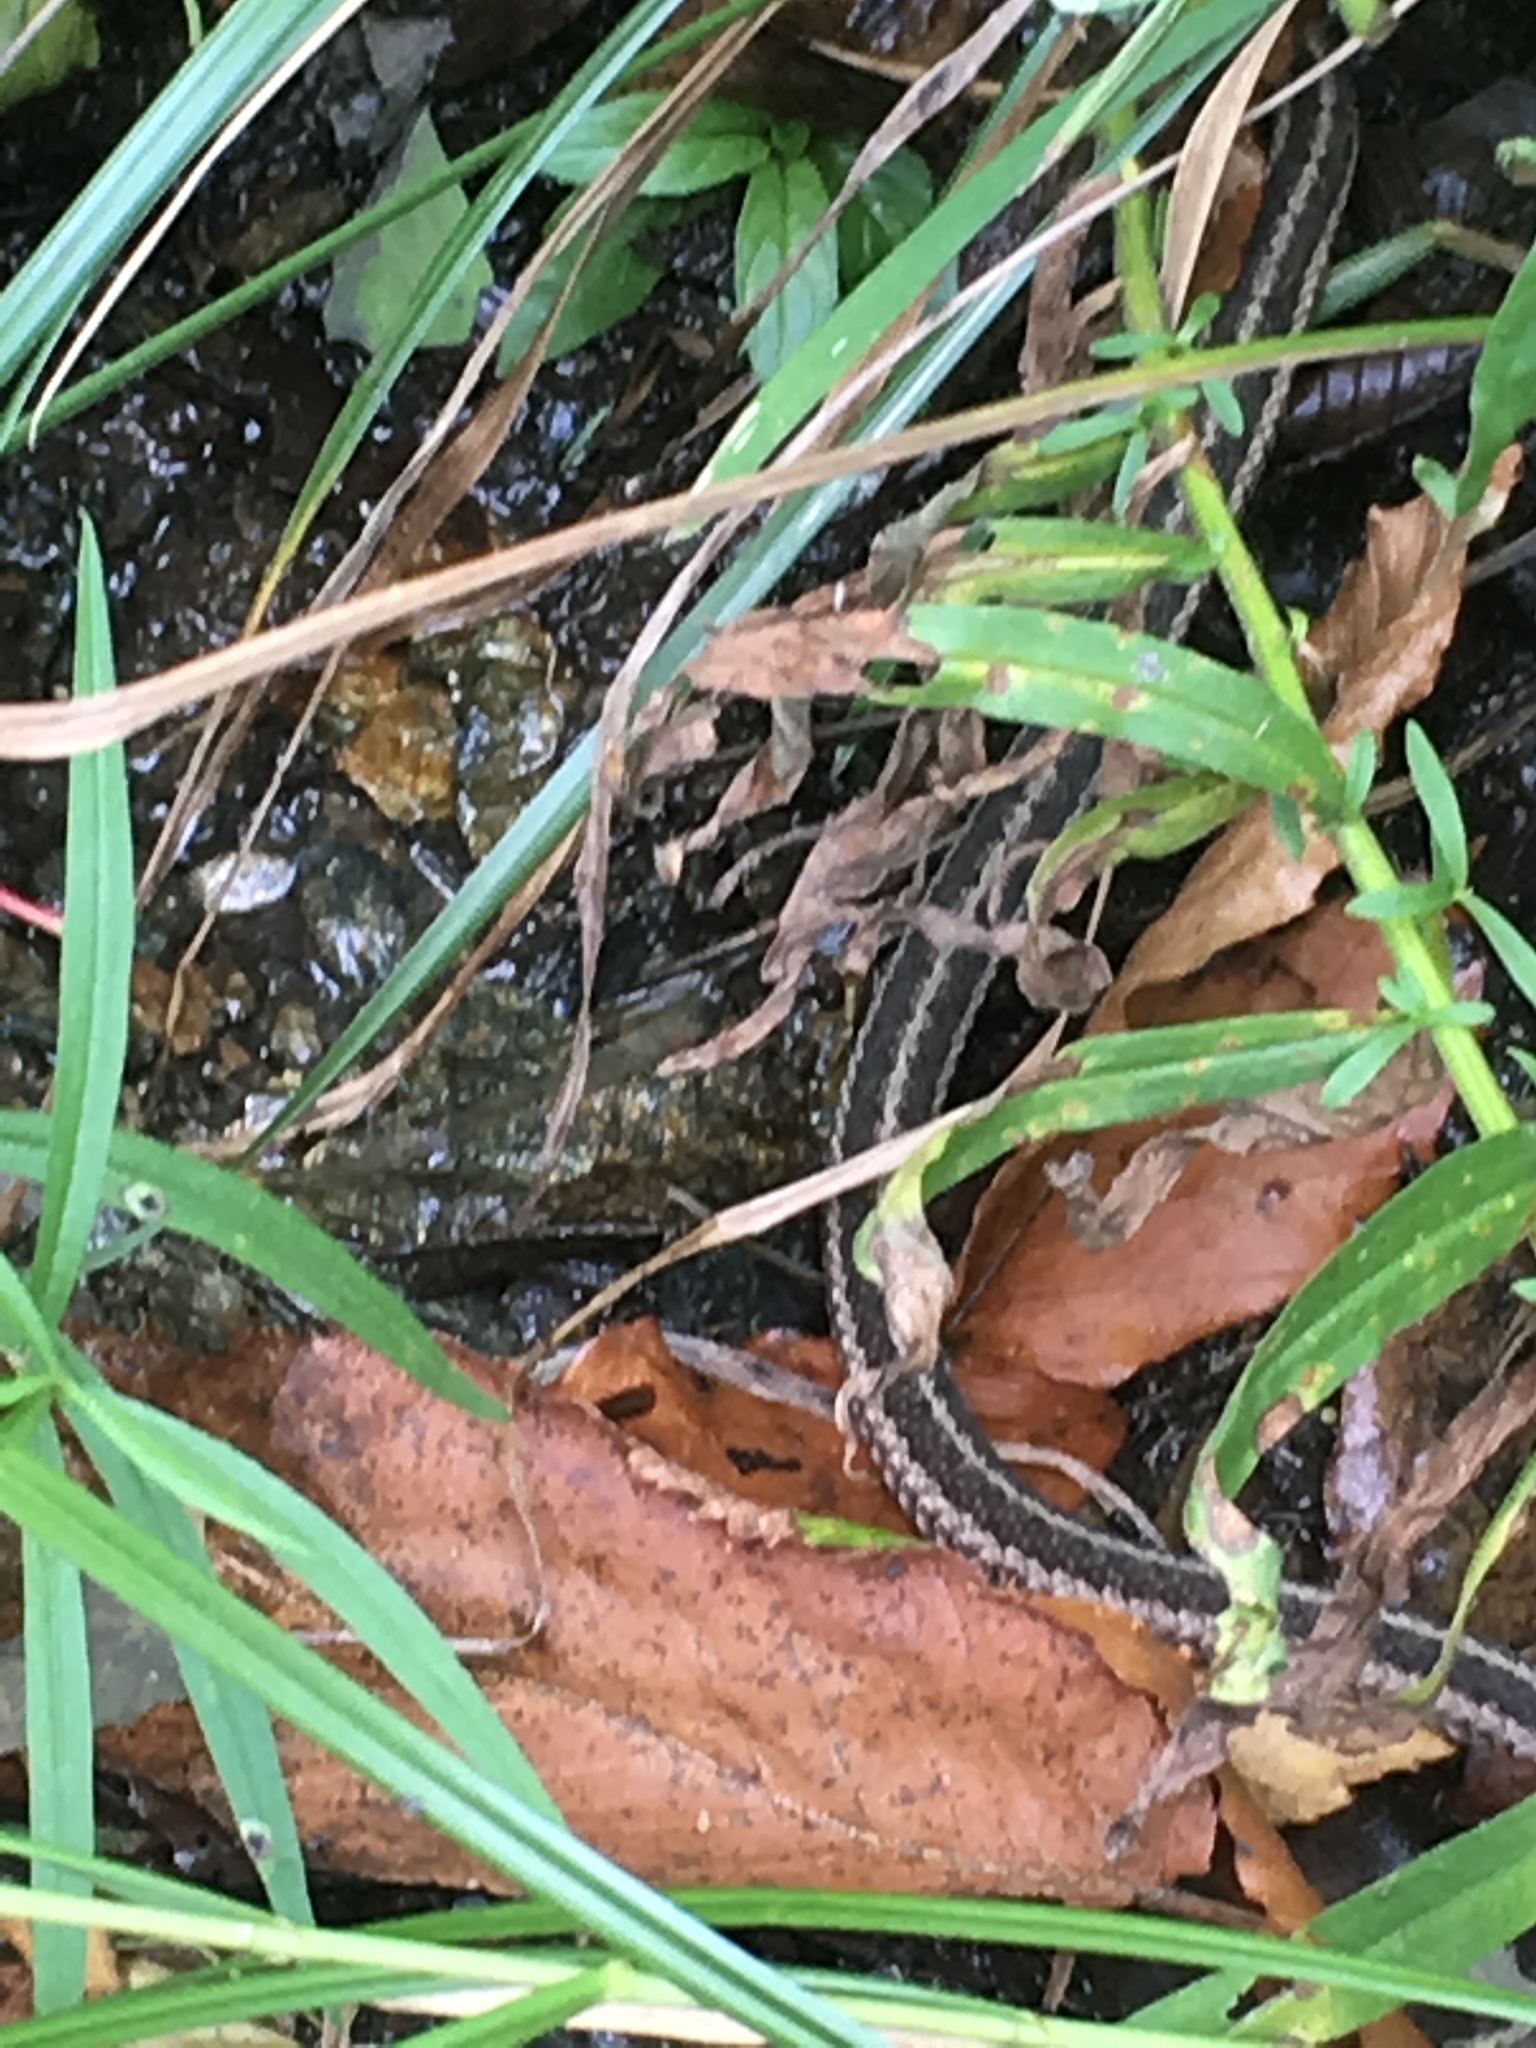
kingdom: Animalia
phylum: Chordata
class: Squamata
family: Colubridae
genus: Thamnophis
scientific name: Thamnophis sirtalis
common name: Common garter snake
